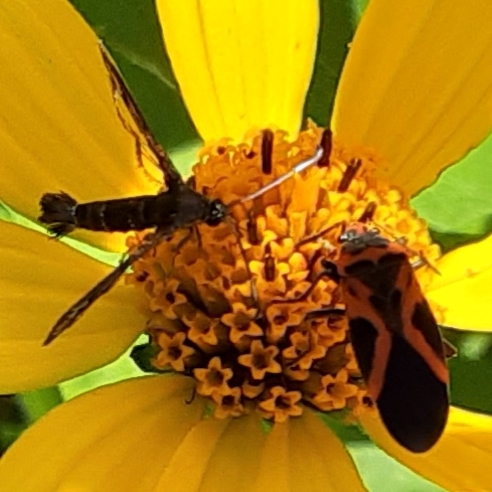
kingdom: Animalia
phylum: Arthropoda
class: Insecta
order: Lepidoptera
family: Sesiidae
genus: Carmenta
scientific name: Carmenta ithacae
